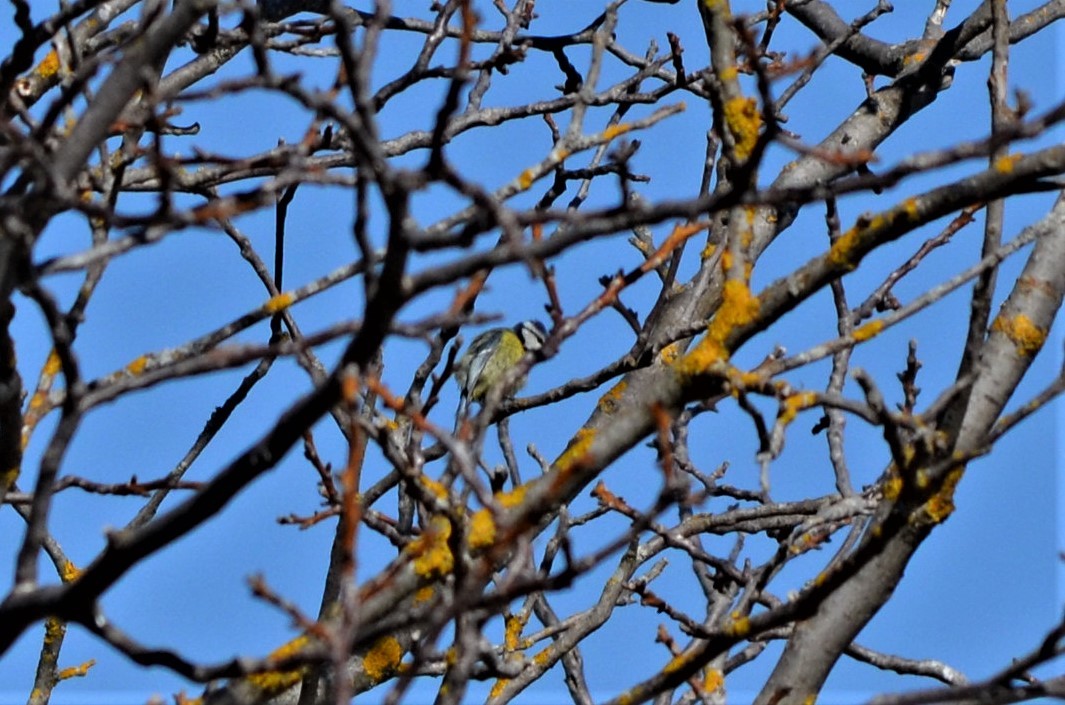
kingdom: Animalia
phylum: Chordata
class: Aves
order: Passeriformes
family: Paridae
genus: Cyanistes
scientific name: Cyanistes caeruleus
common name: Eurasian blue tit
